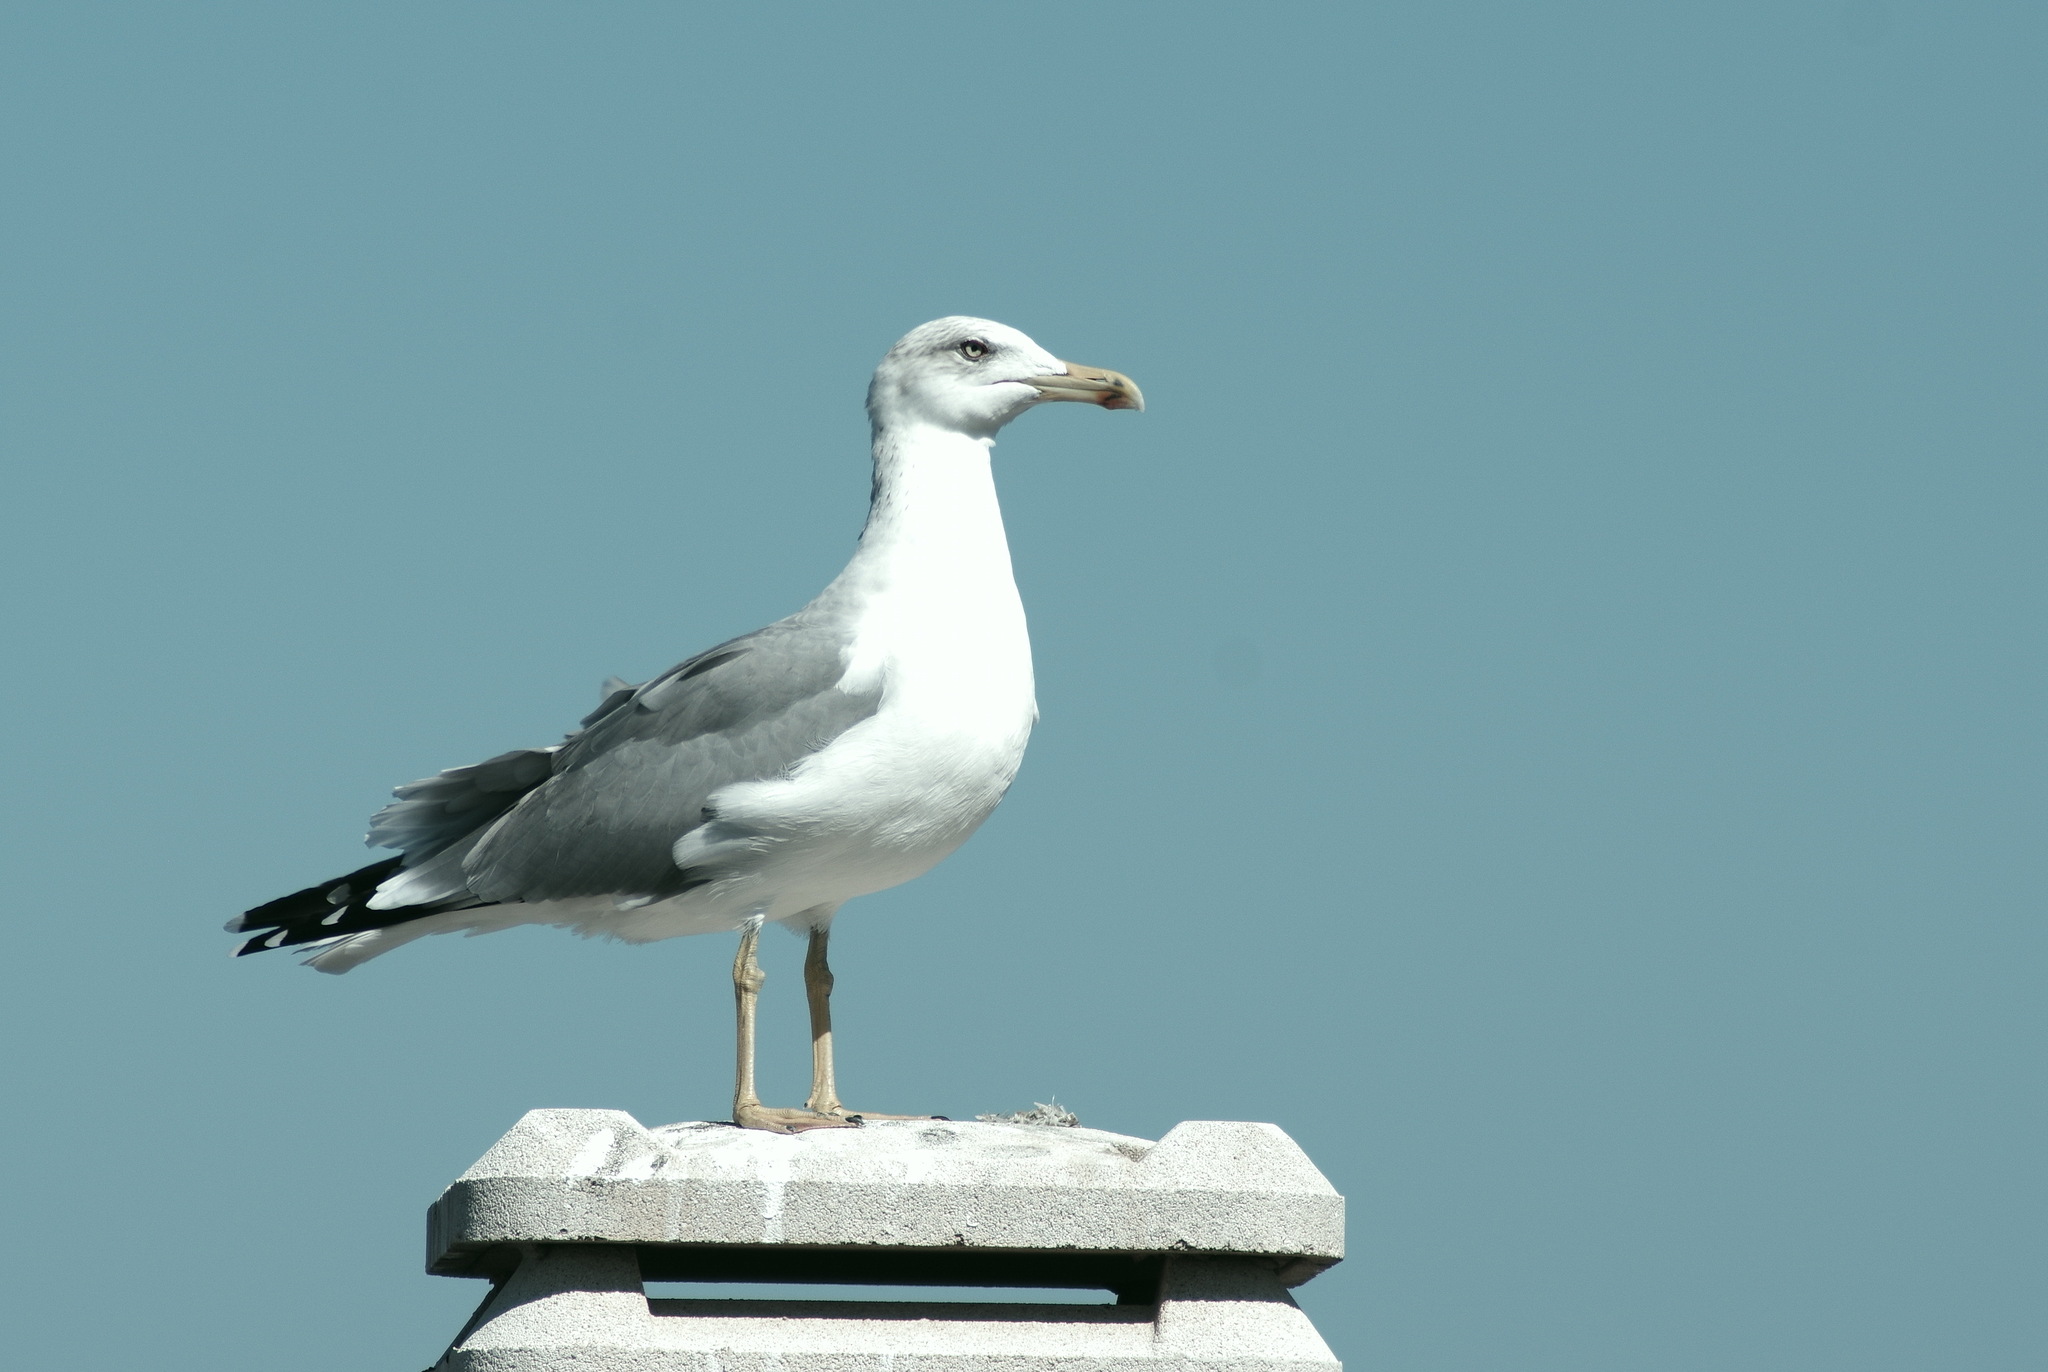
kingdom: Animalia
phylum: Chordata
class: Aves
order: Charadriiformes
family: Laridae
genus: Larus
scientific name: Larus michahellis
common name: Yellow-legged gull
